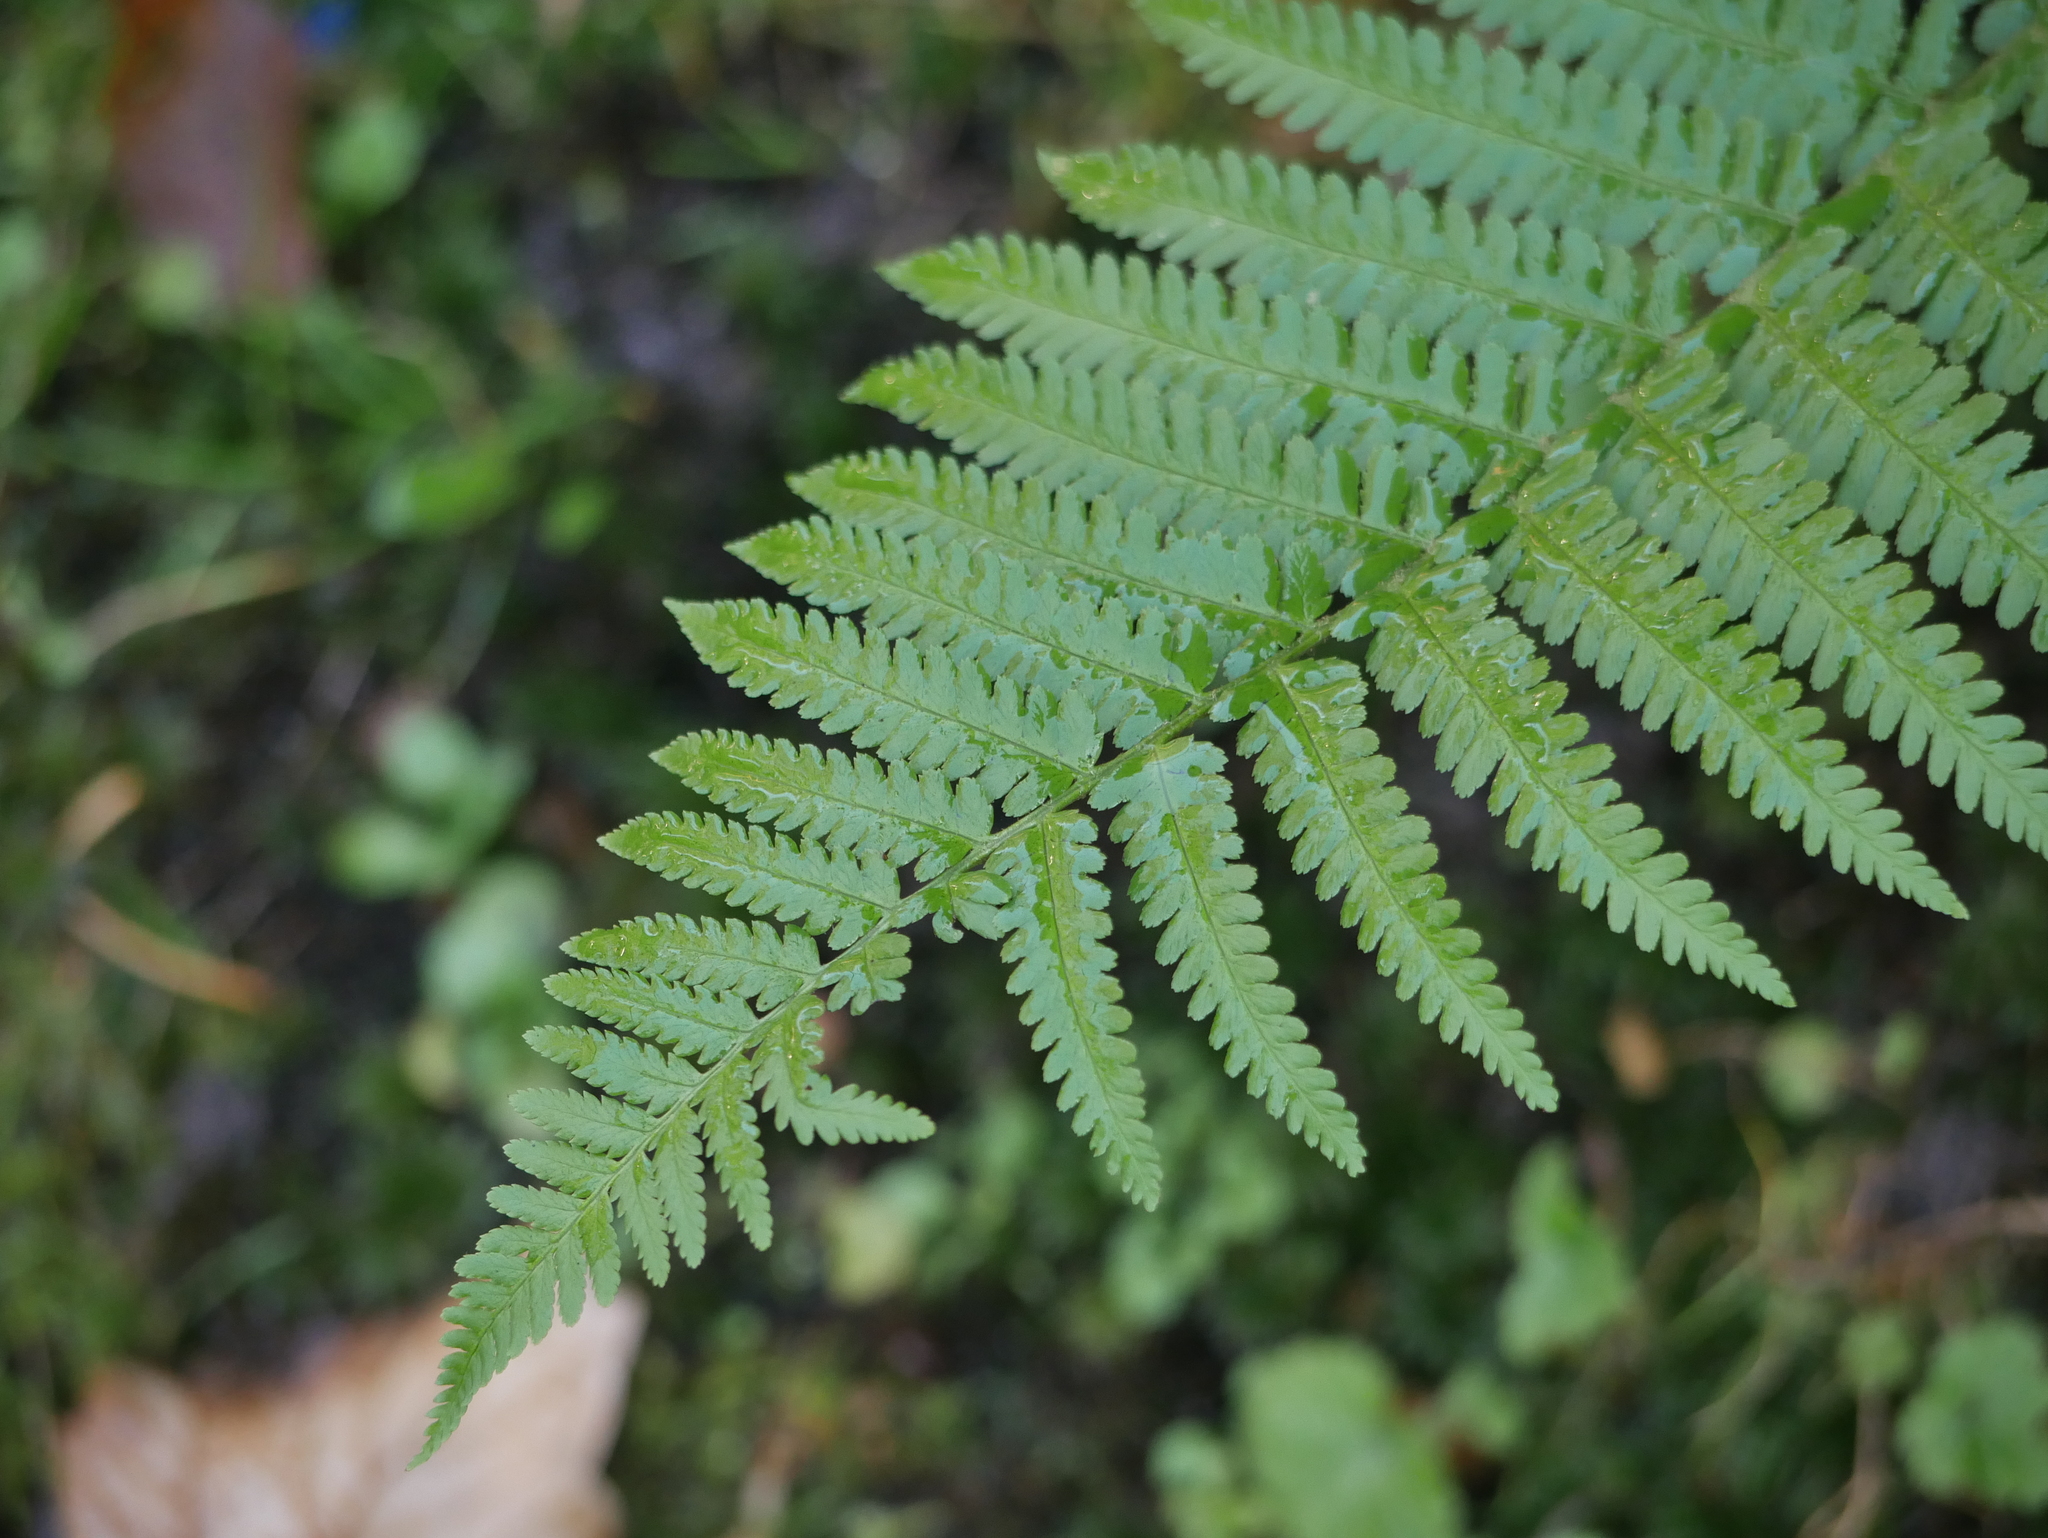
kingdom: Plantae
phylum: Tracheophyta
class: Polypodiopsida
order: Polypodiales
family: Dryopteridaceae
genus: Dryopteris
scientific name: Dryopteris filix-mas
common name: Male fern
